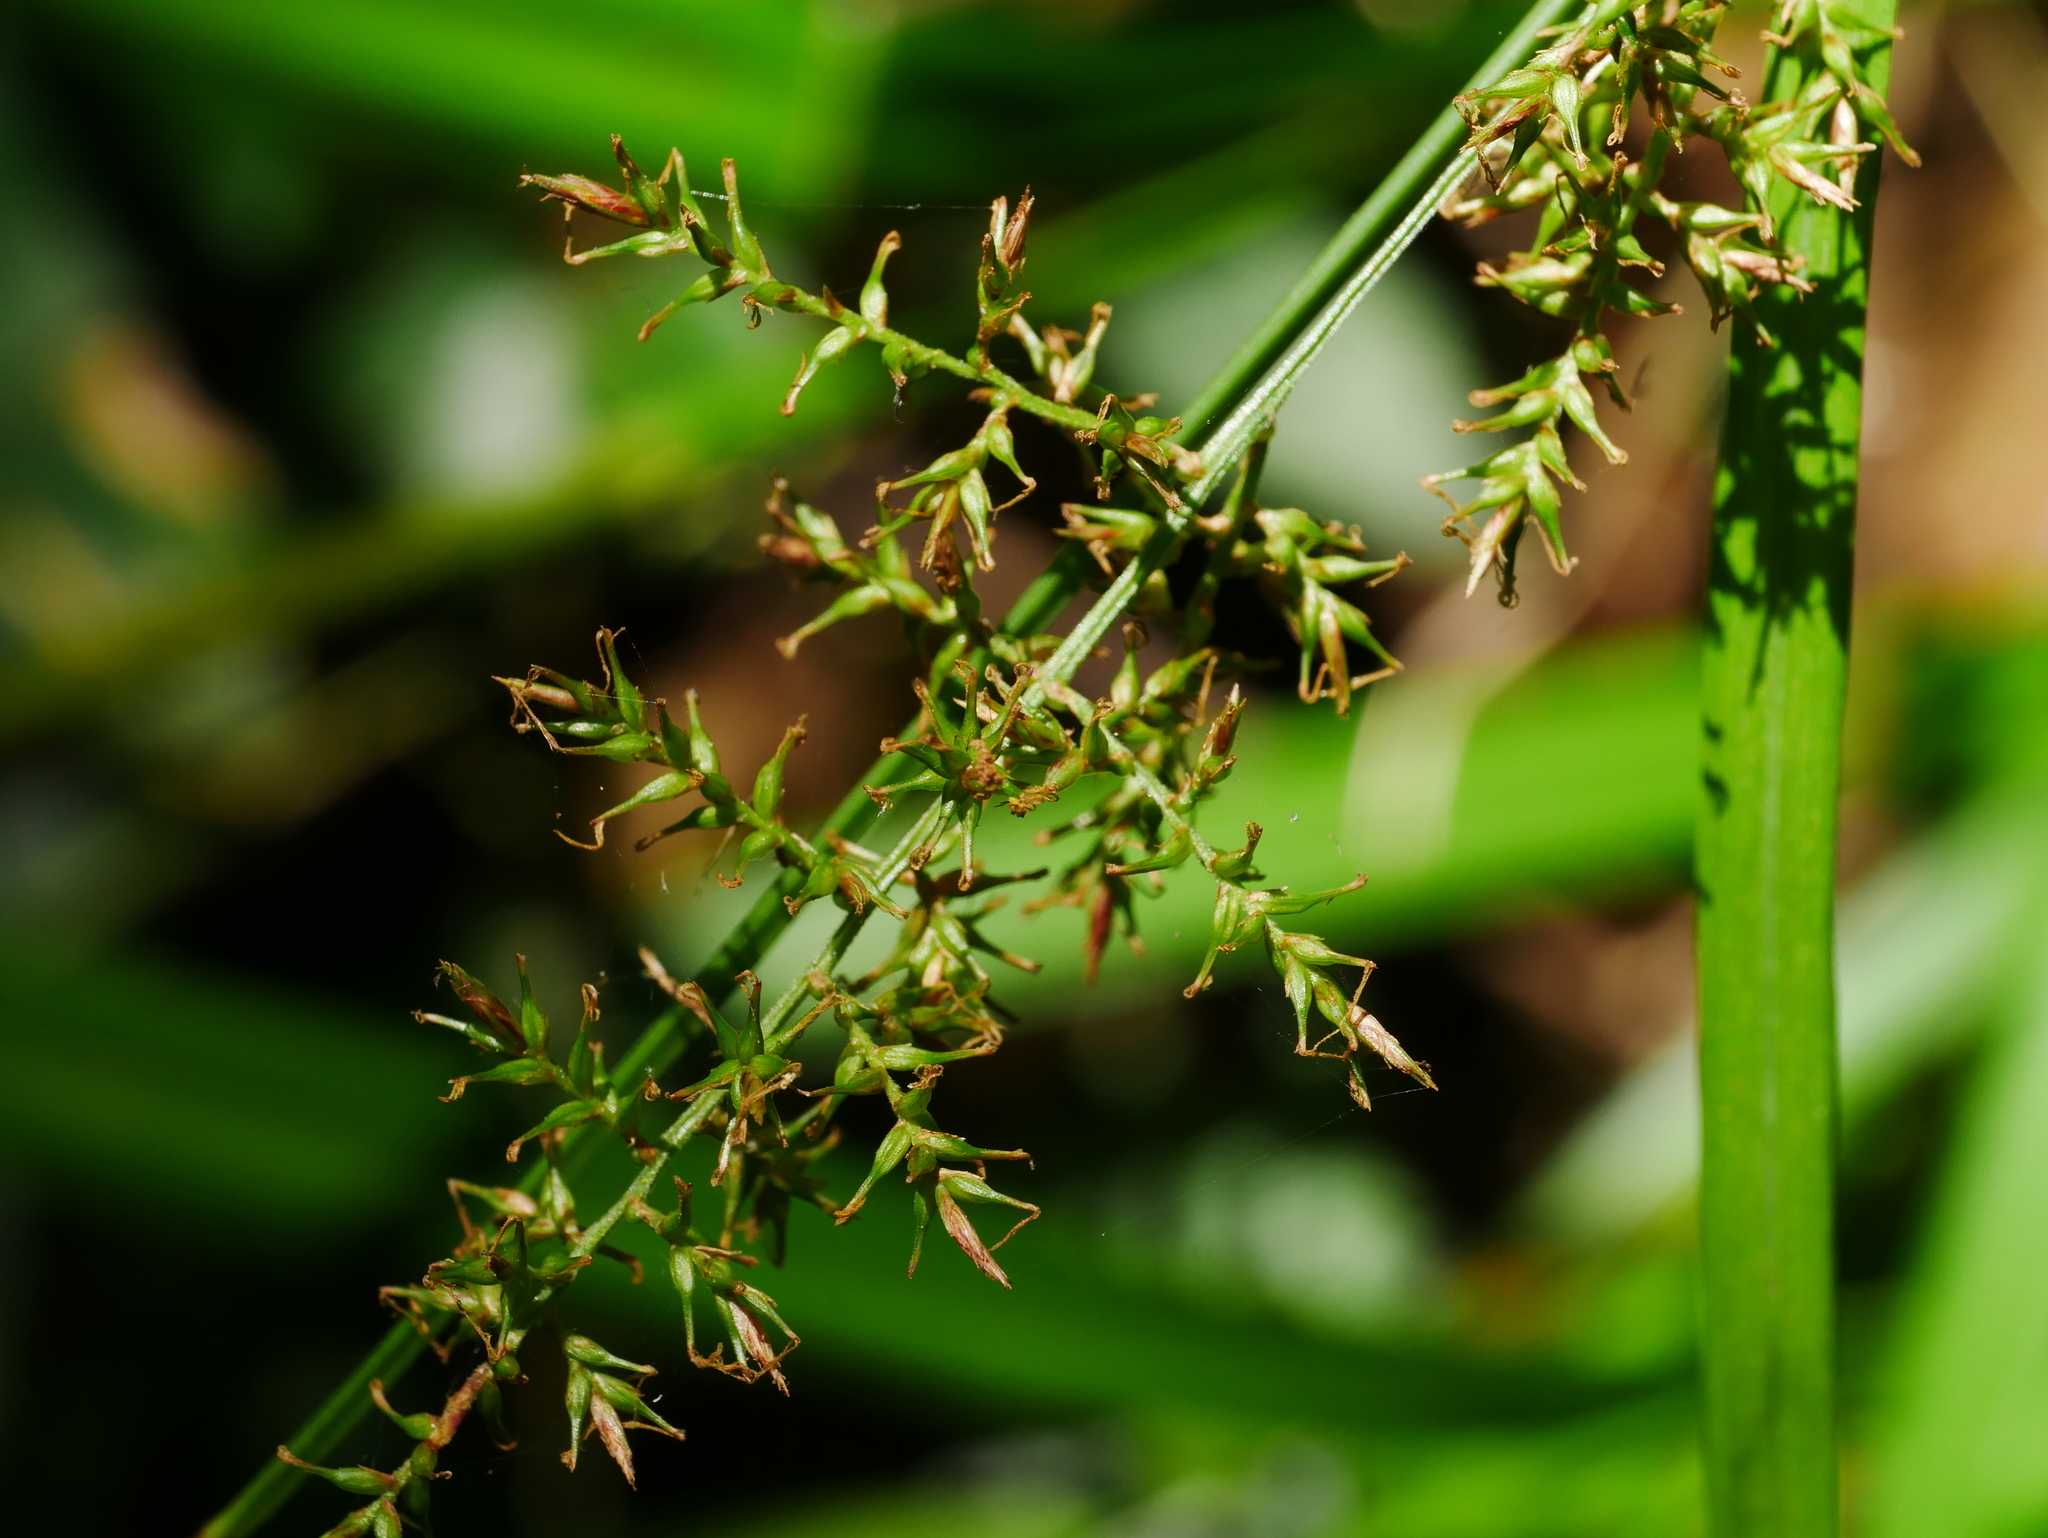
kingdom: Plantae
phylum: Tracheophyta
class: Liliopsida
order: Poales
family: Cyperaceae
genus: Carex
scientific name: Carex cruciata
